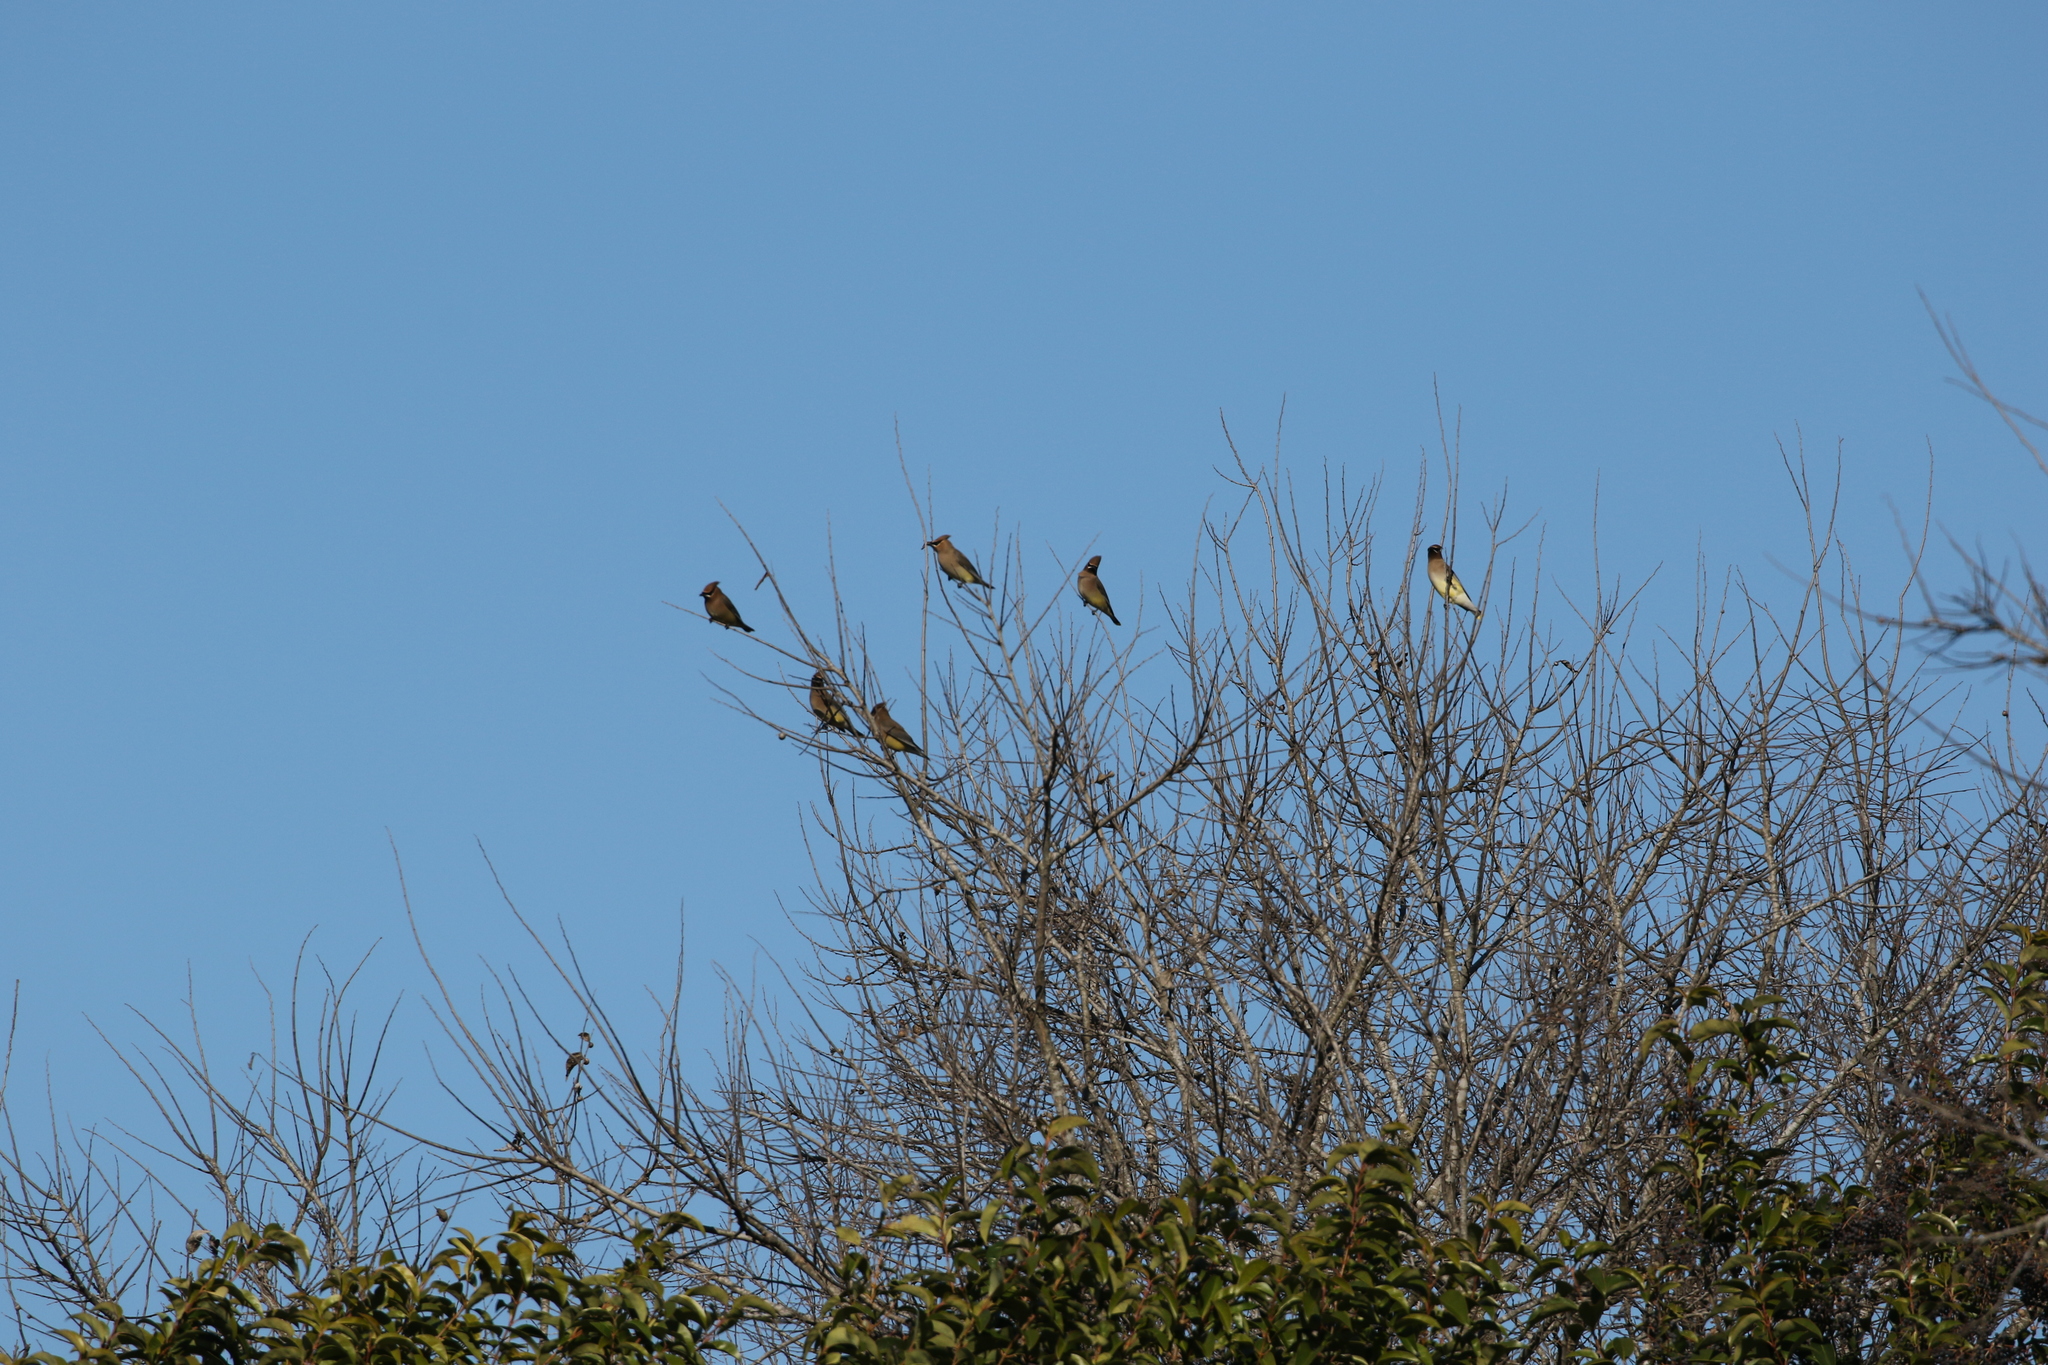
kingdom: Animalia
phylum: Chordata
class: Aves
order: Passeriformes
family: Bombycillidae
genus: Bombycilla
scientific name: Bombycilla cedrorum
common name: Cedar waxwing
